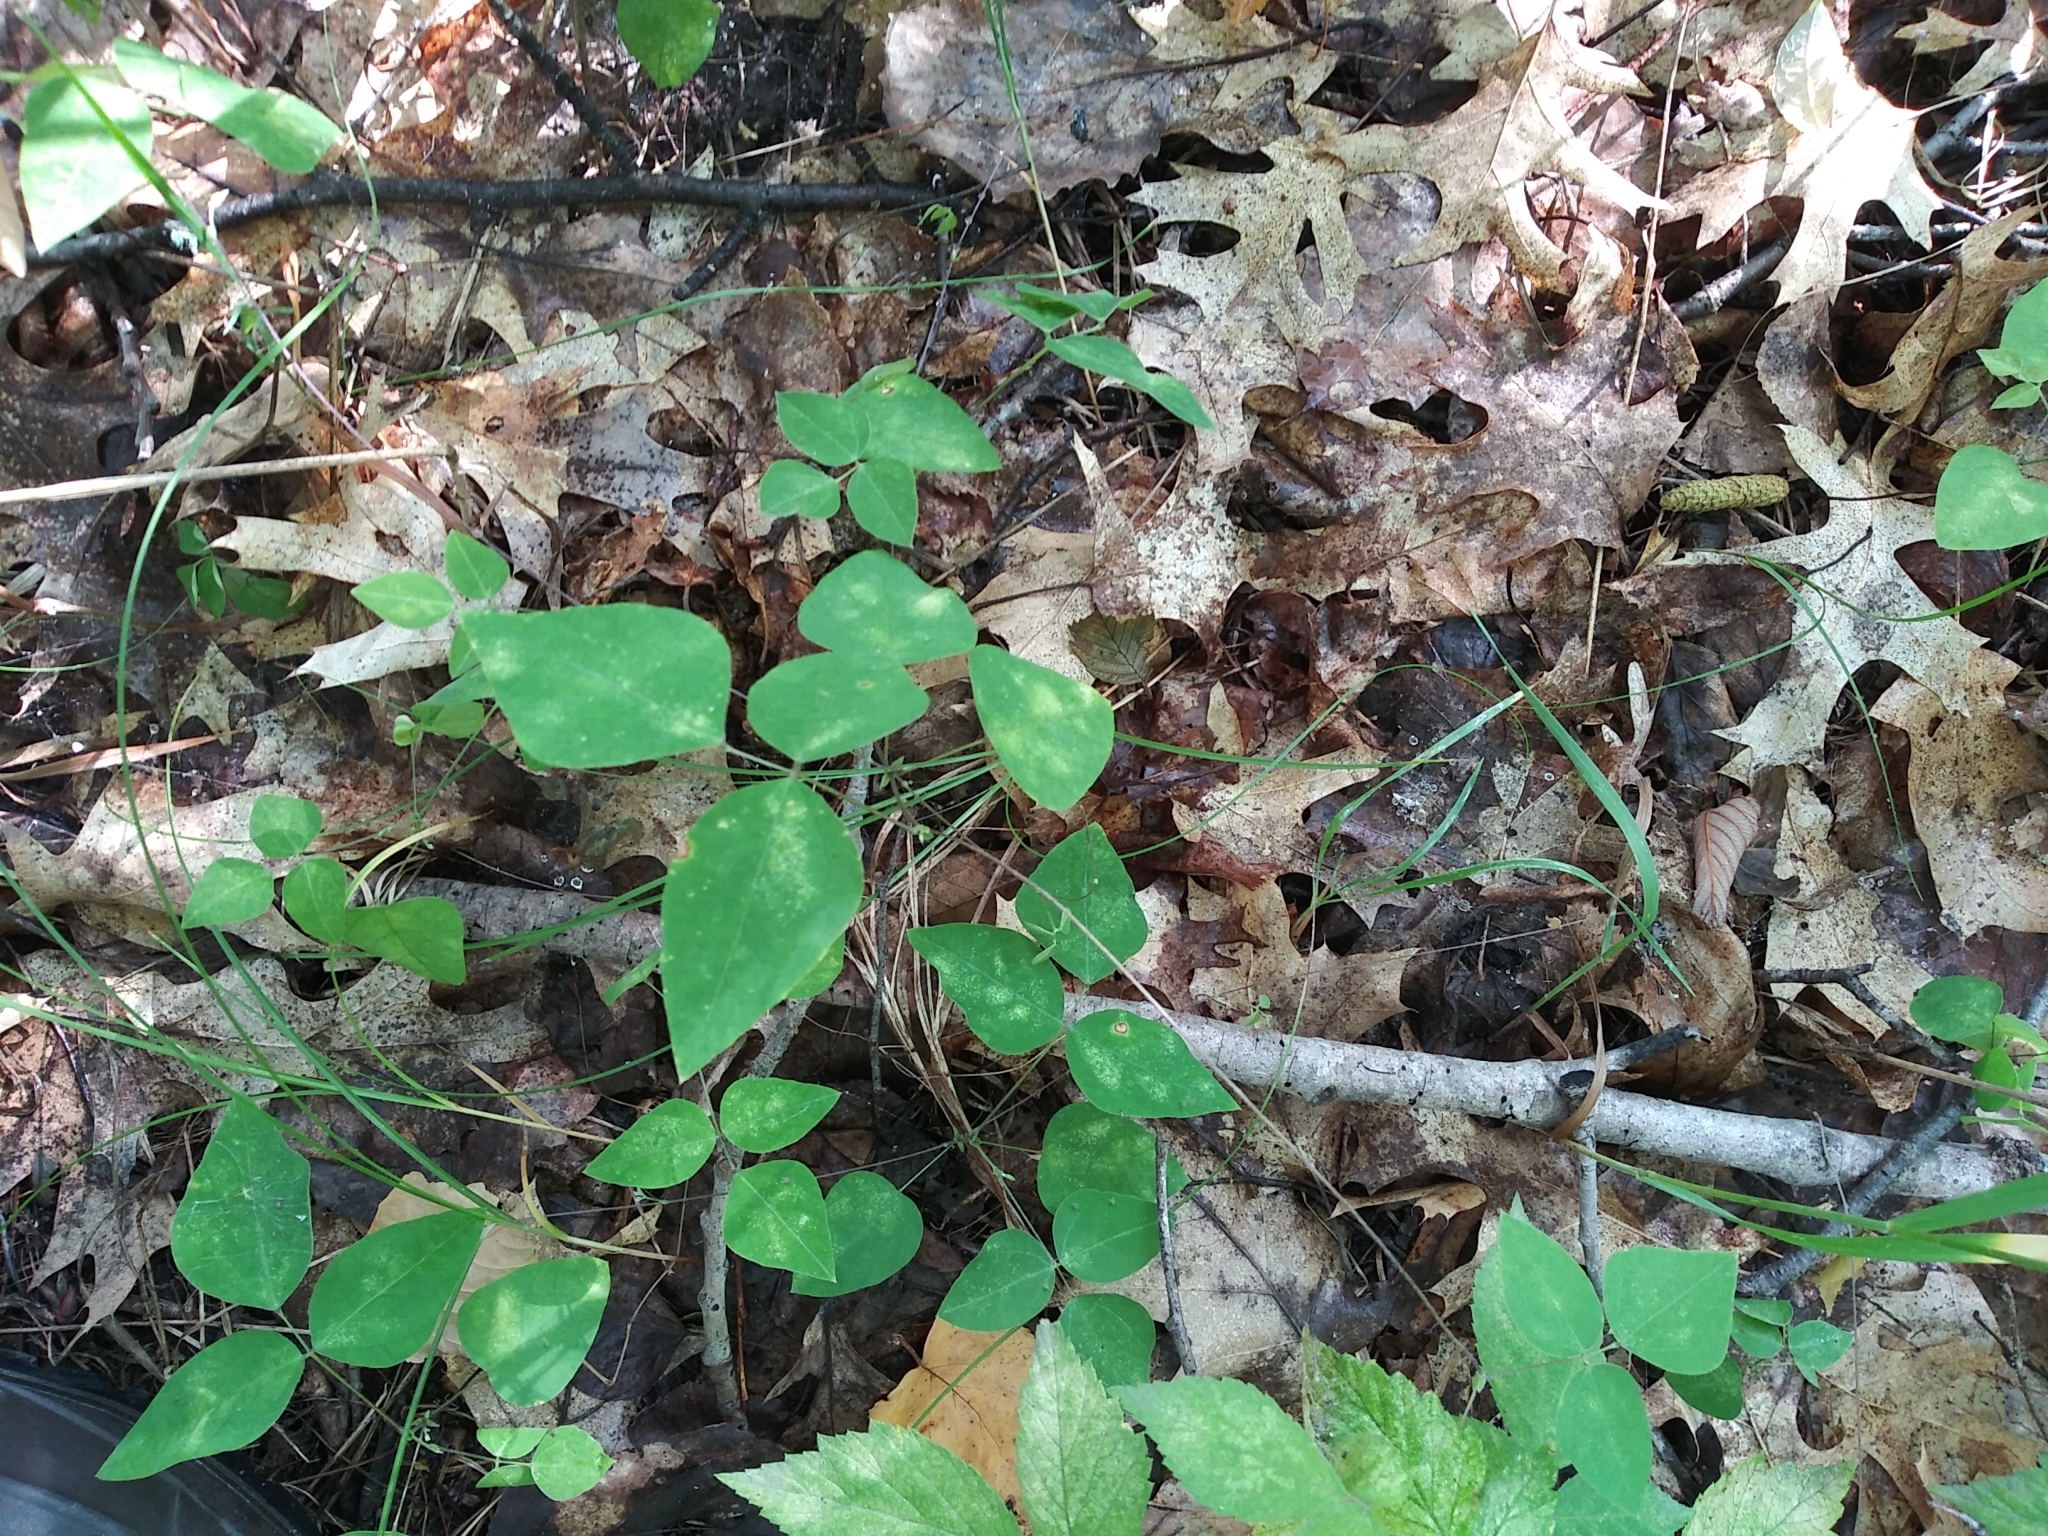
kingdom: Plantae
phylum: Tracheophyta
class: Magnoliopsida
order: Fabales
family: Fabaceae
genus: Amphicarpaea
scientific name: Amphicarpaea bracteata
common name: American hog peanut
